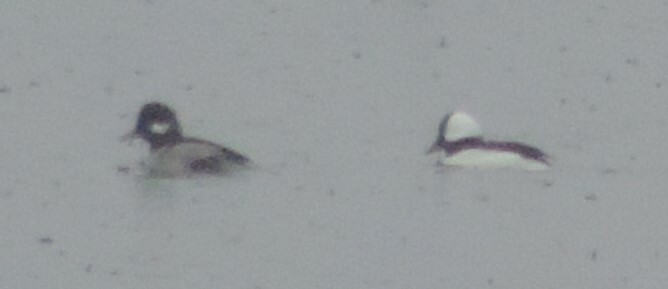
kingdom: Animalia
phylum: Chordata
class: Aves
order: Anseriformes
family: Anatidae
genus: Bucephala
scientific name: Bucephala albeola
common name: Bufflehead
